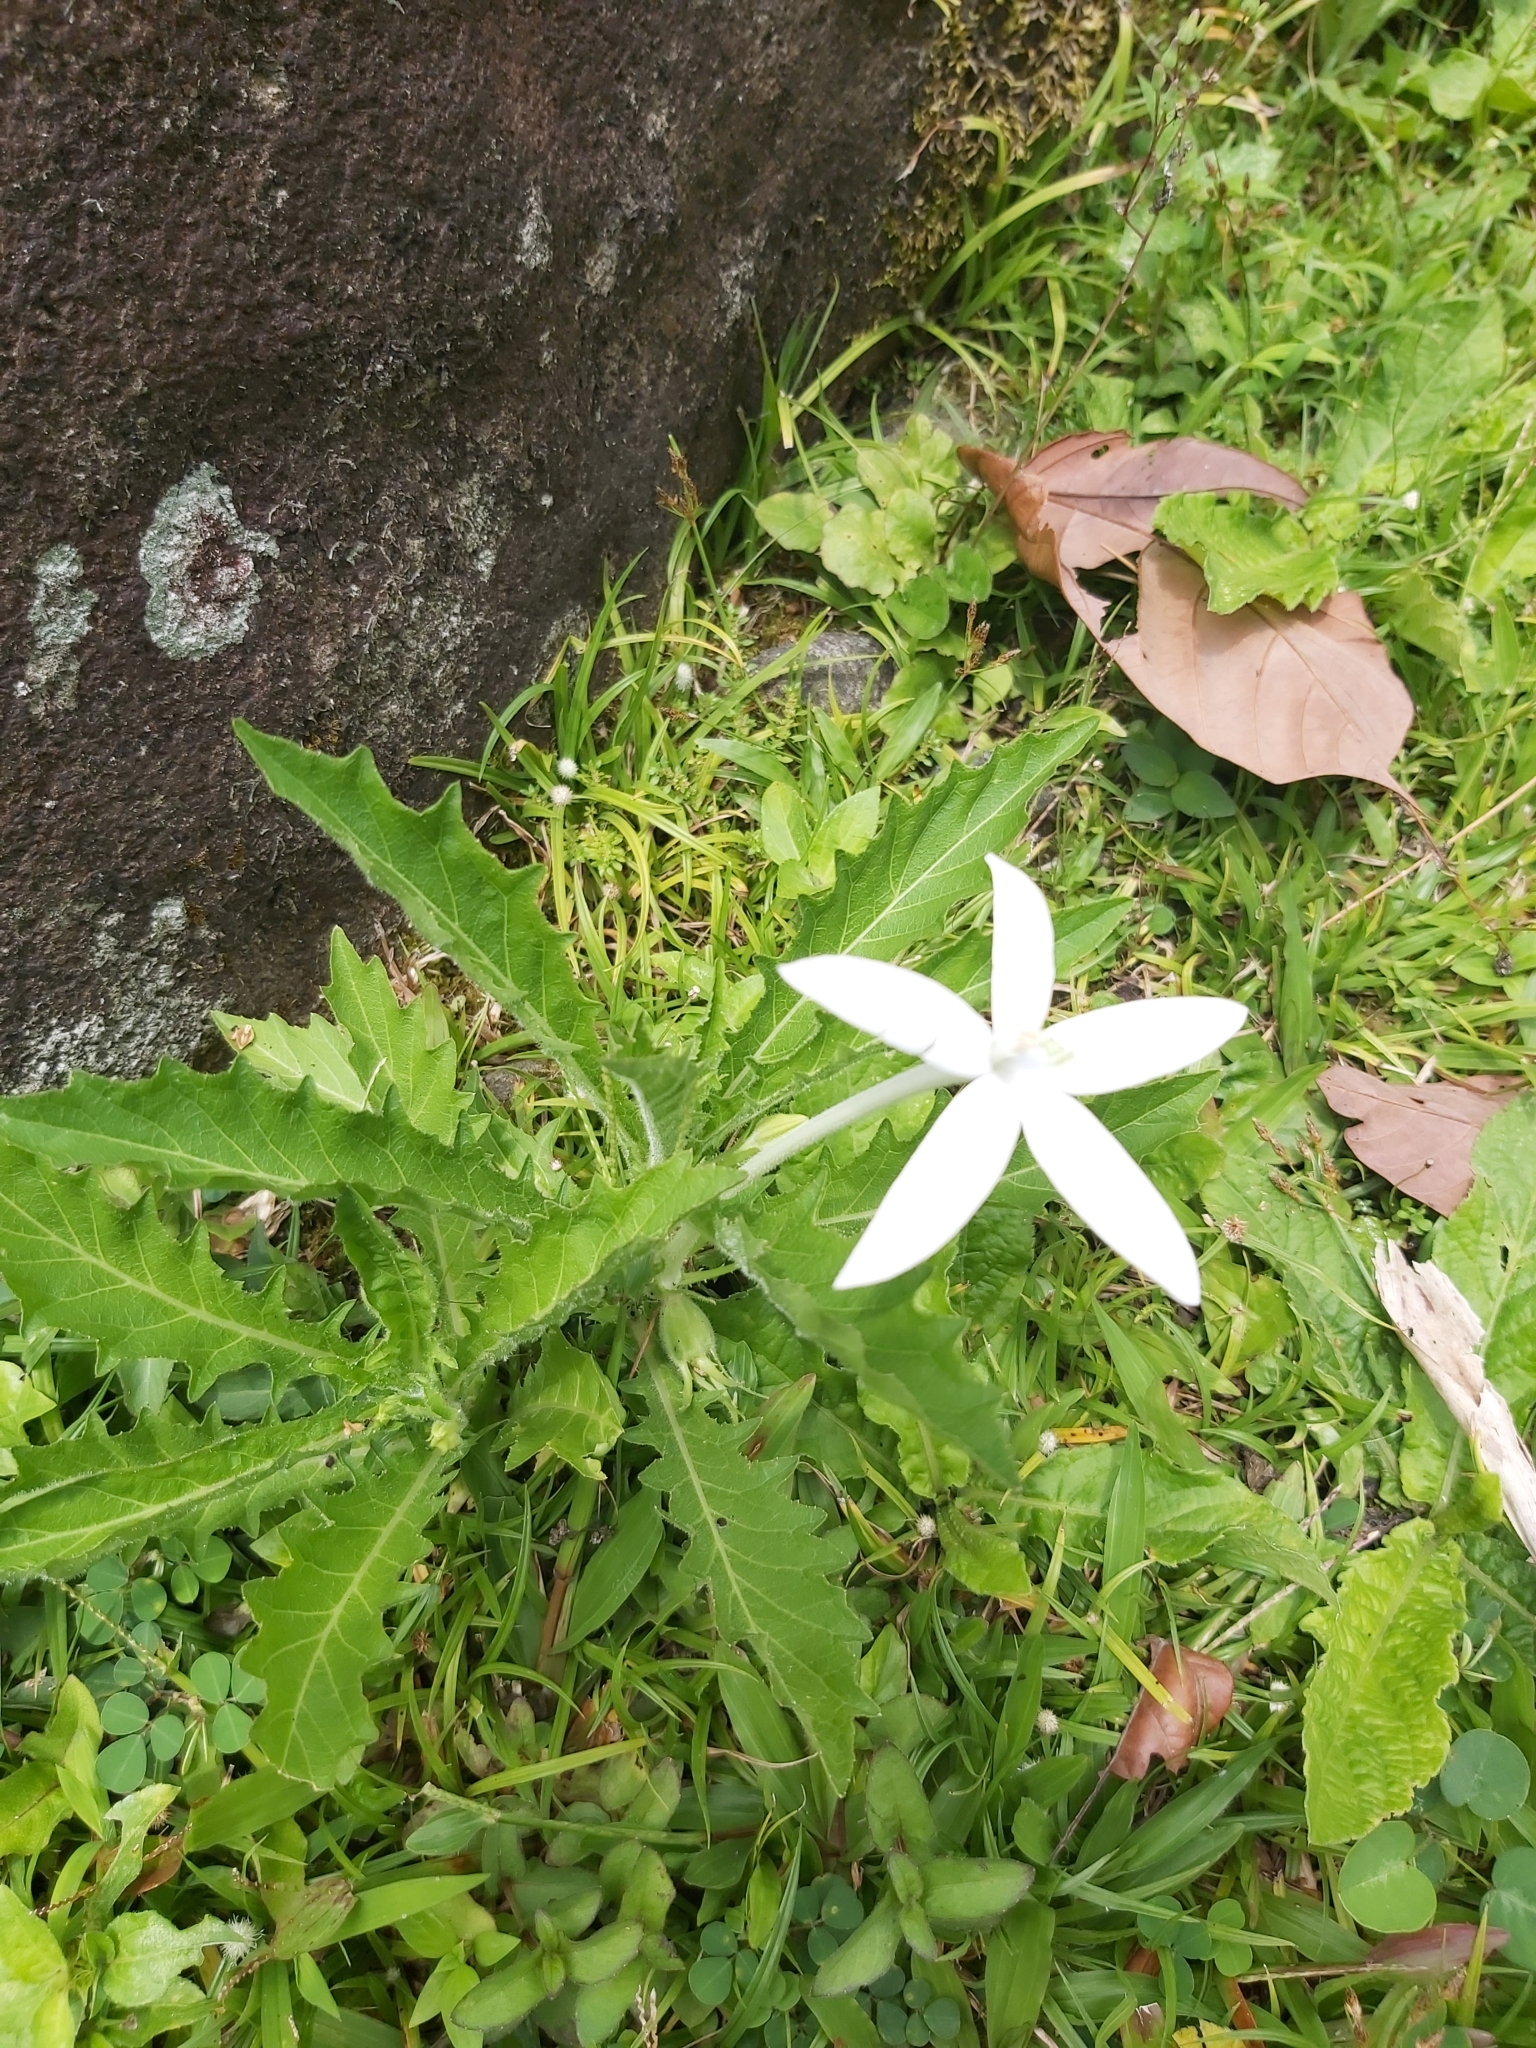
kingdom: Plantae
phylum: Tracheophyta
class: Magnoliopsida
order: Asterales
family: Campanulaceae
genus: Hippobroma
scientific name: Hippobroma longiflora
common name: Madamfate
